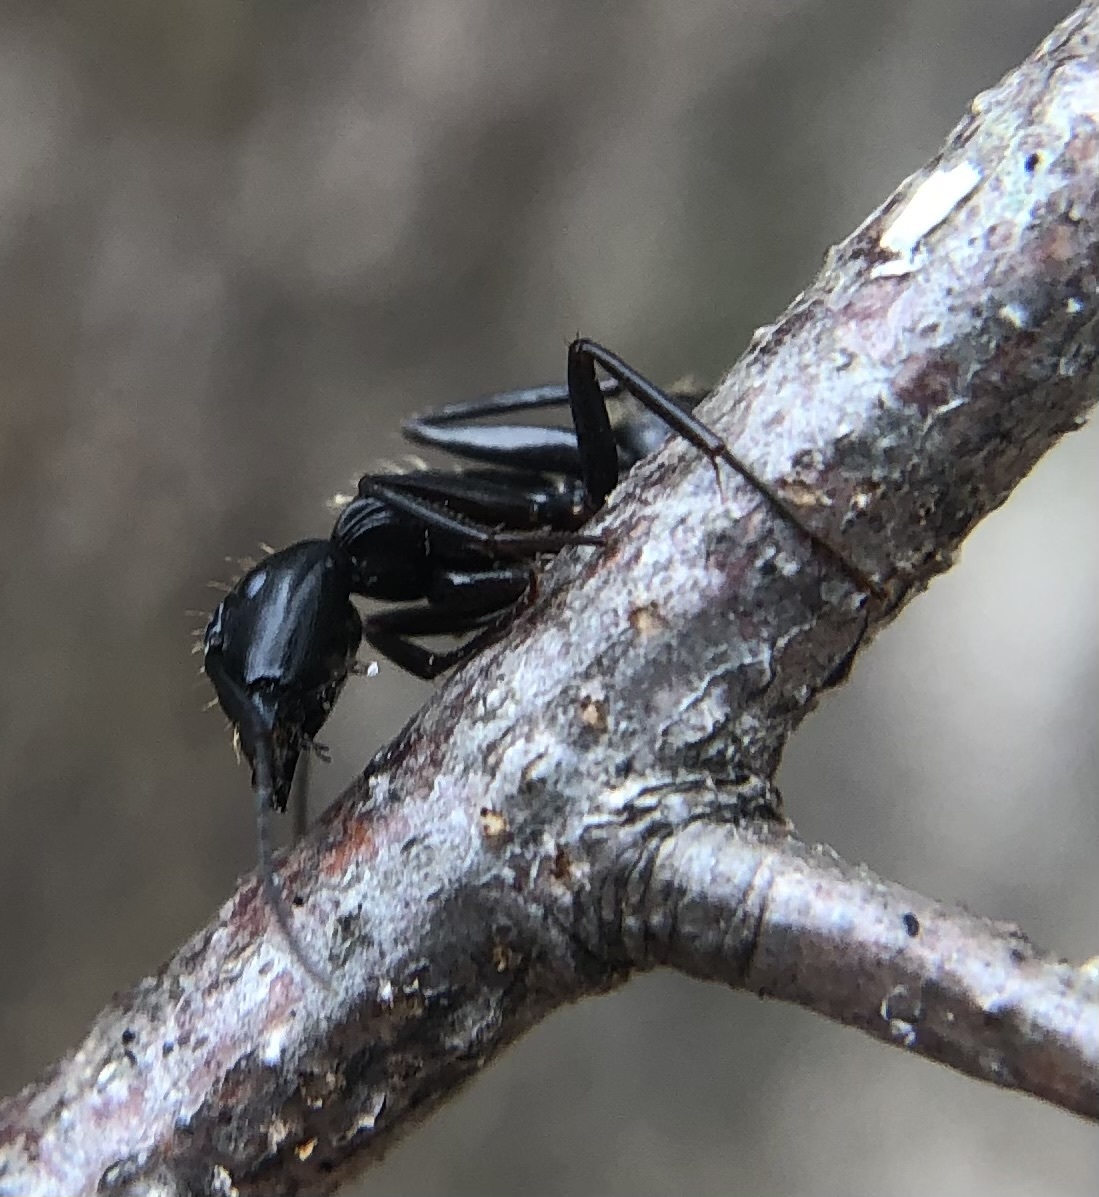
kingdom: Animalia
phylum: Arthropoda
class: Insecta
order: Hymenoptera
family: Formicidae
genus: Camponotus
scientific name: Camponotus pennsylvanicus
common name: Black carpenter ant
